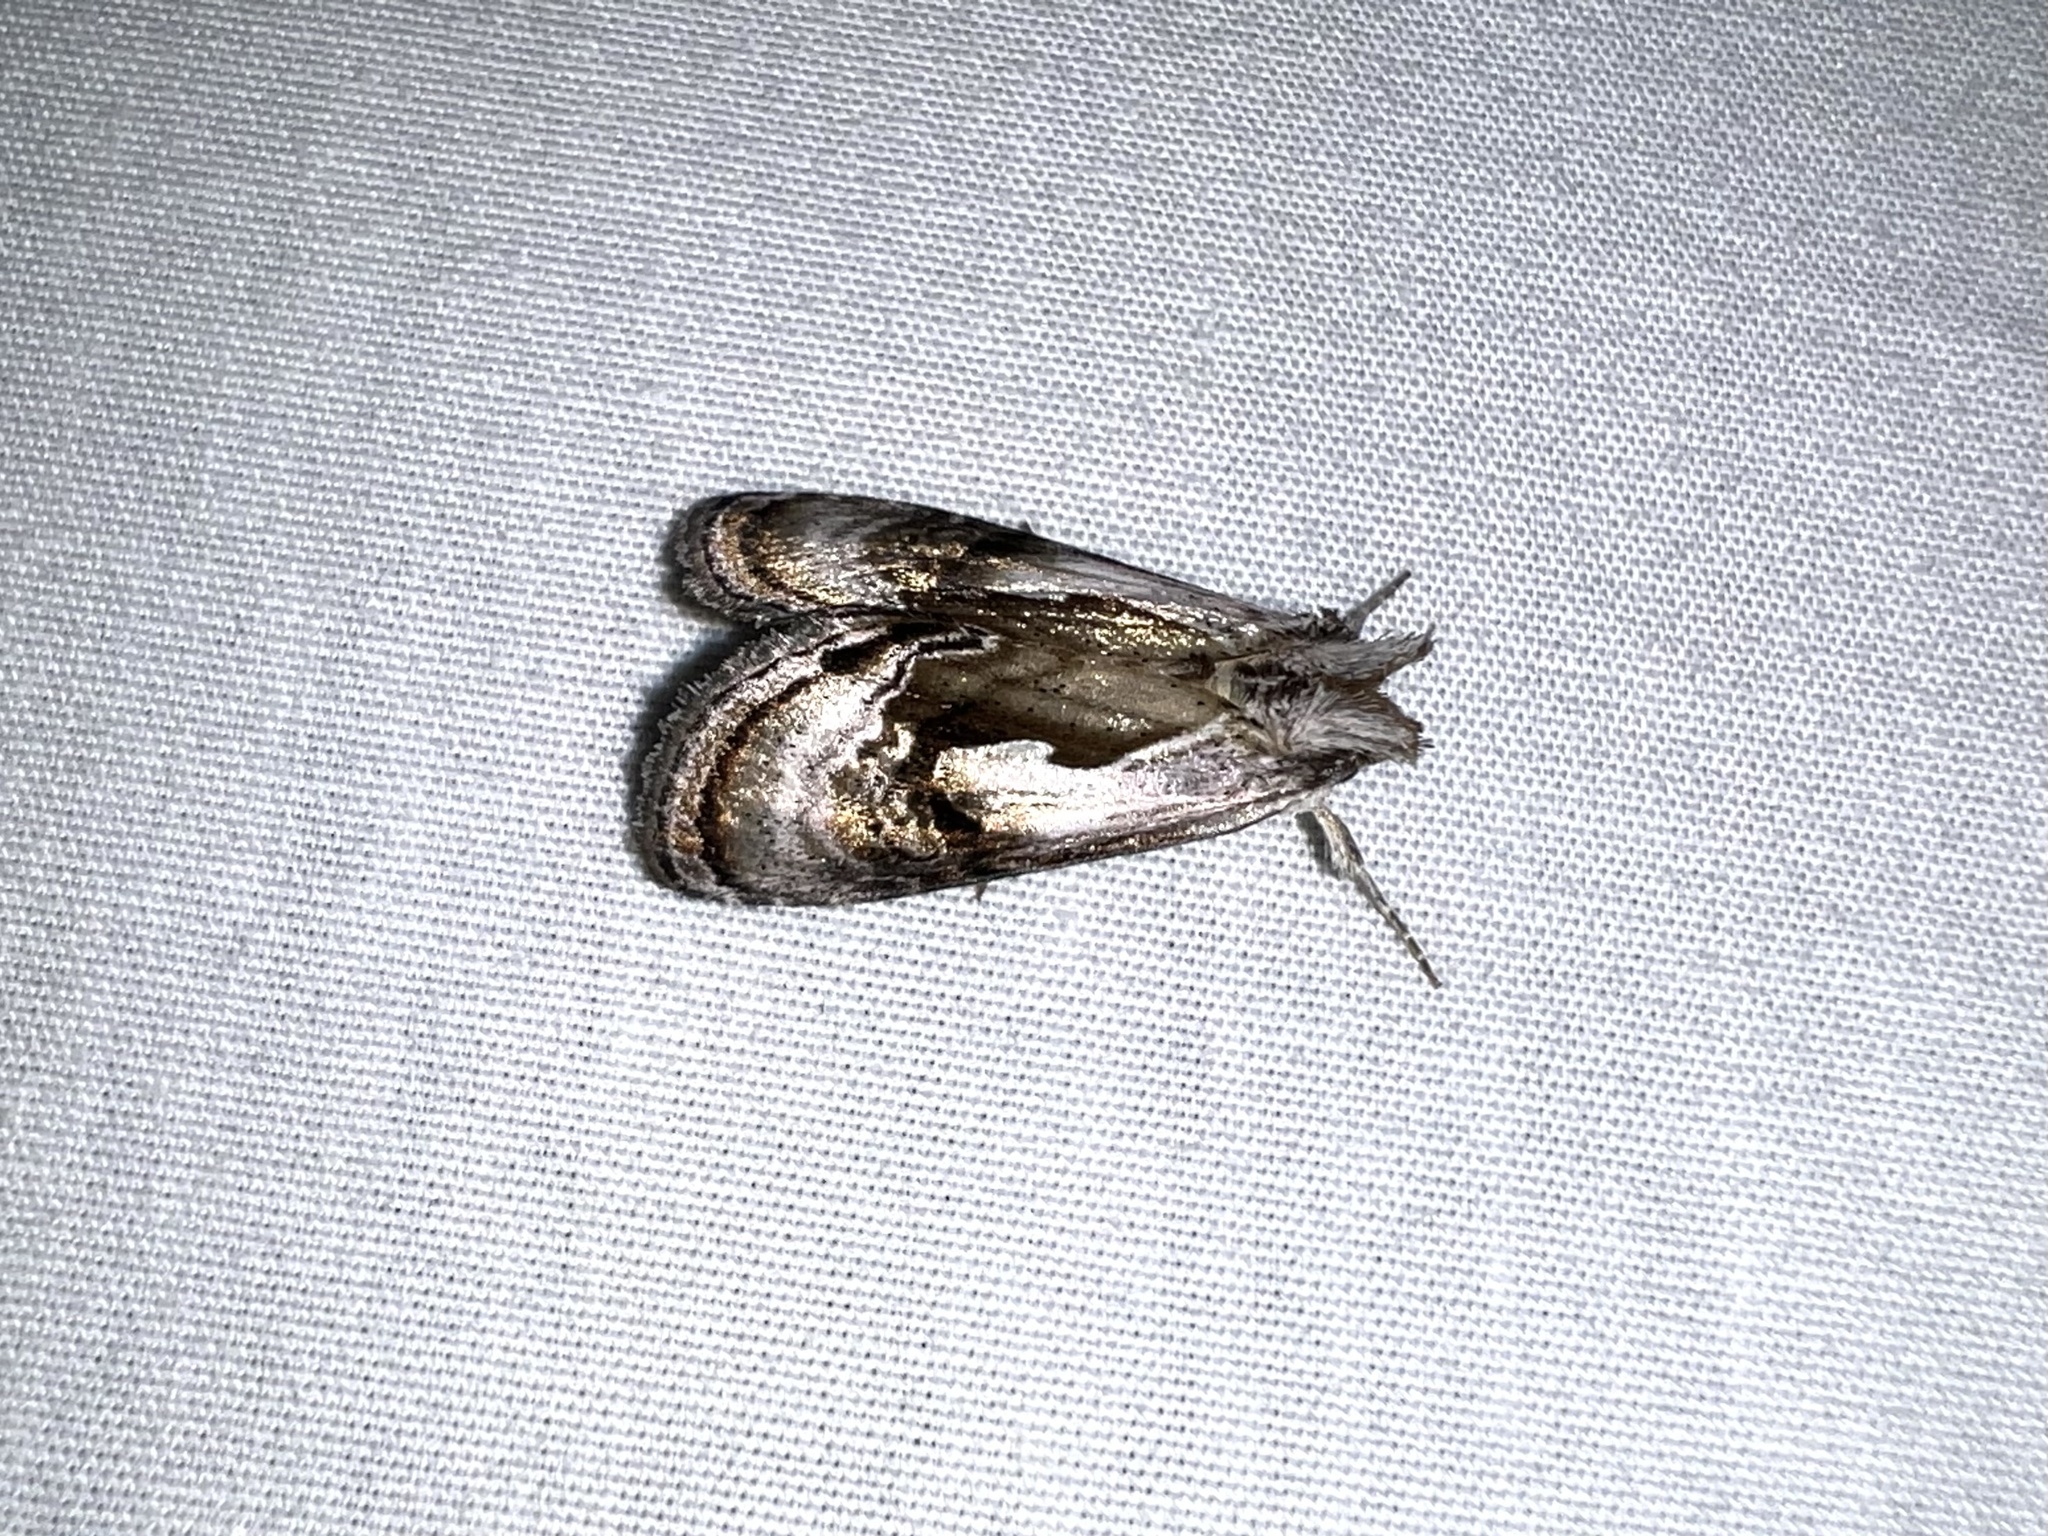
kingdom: Animalia
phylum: Arthropoda
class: Insecta
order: Lepidoptera
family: Noctuidae
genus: Chrysanympha
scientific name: Chrysanympha formosa
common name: Formosa looper moth
